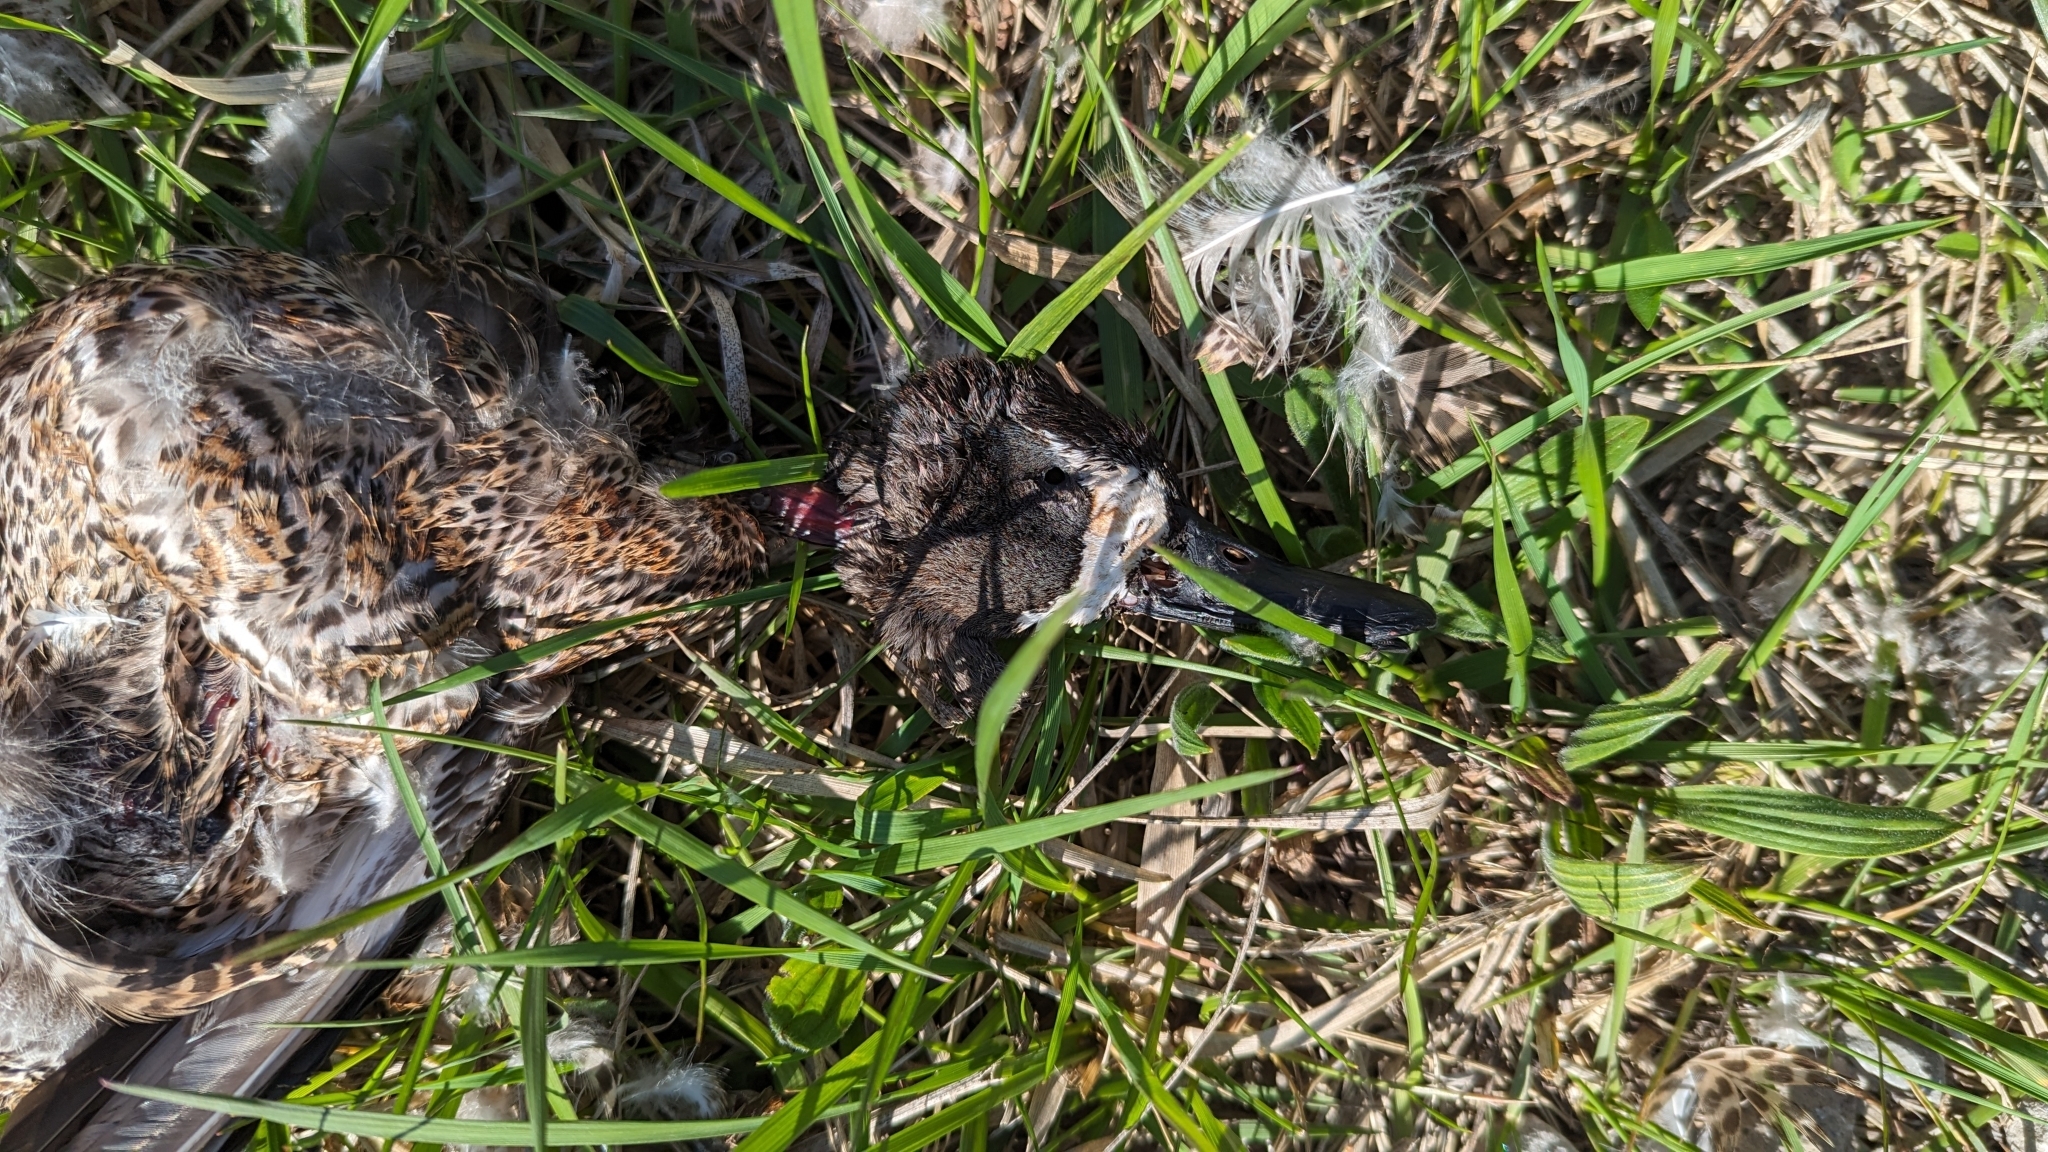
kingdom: Animalia
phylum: Chordata
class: Aves
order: Anseriformes
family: Anatidae
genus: Spatula
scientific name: Spatula discors
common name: Blue-winged teal
